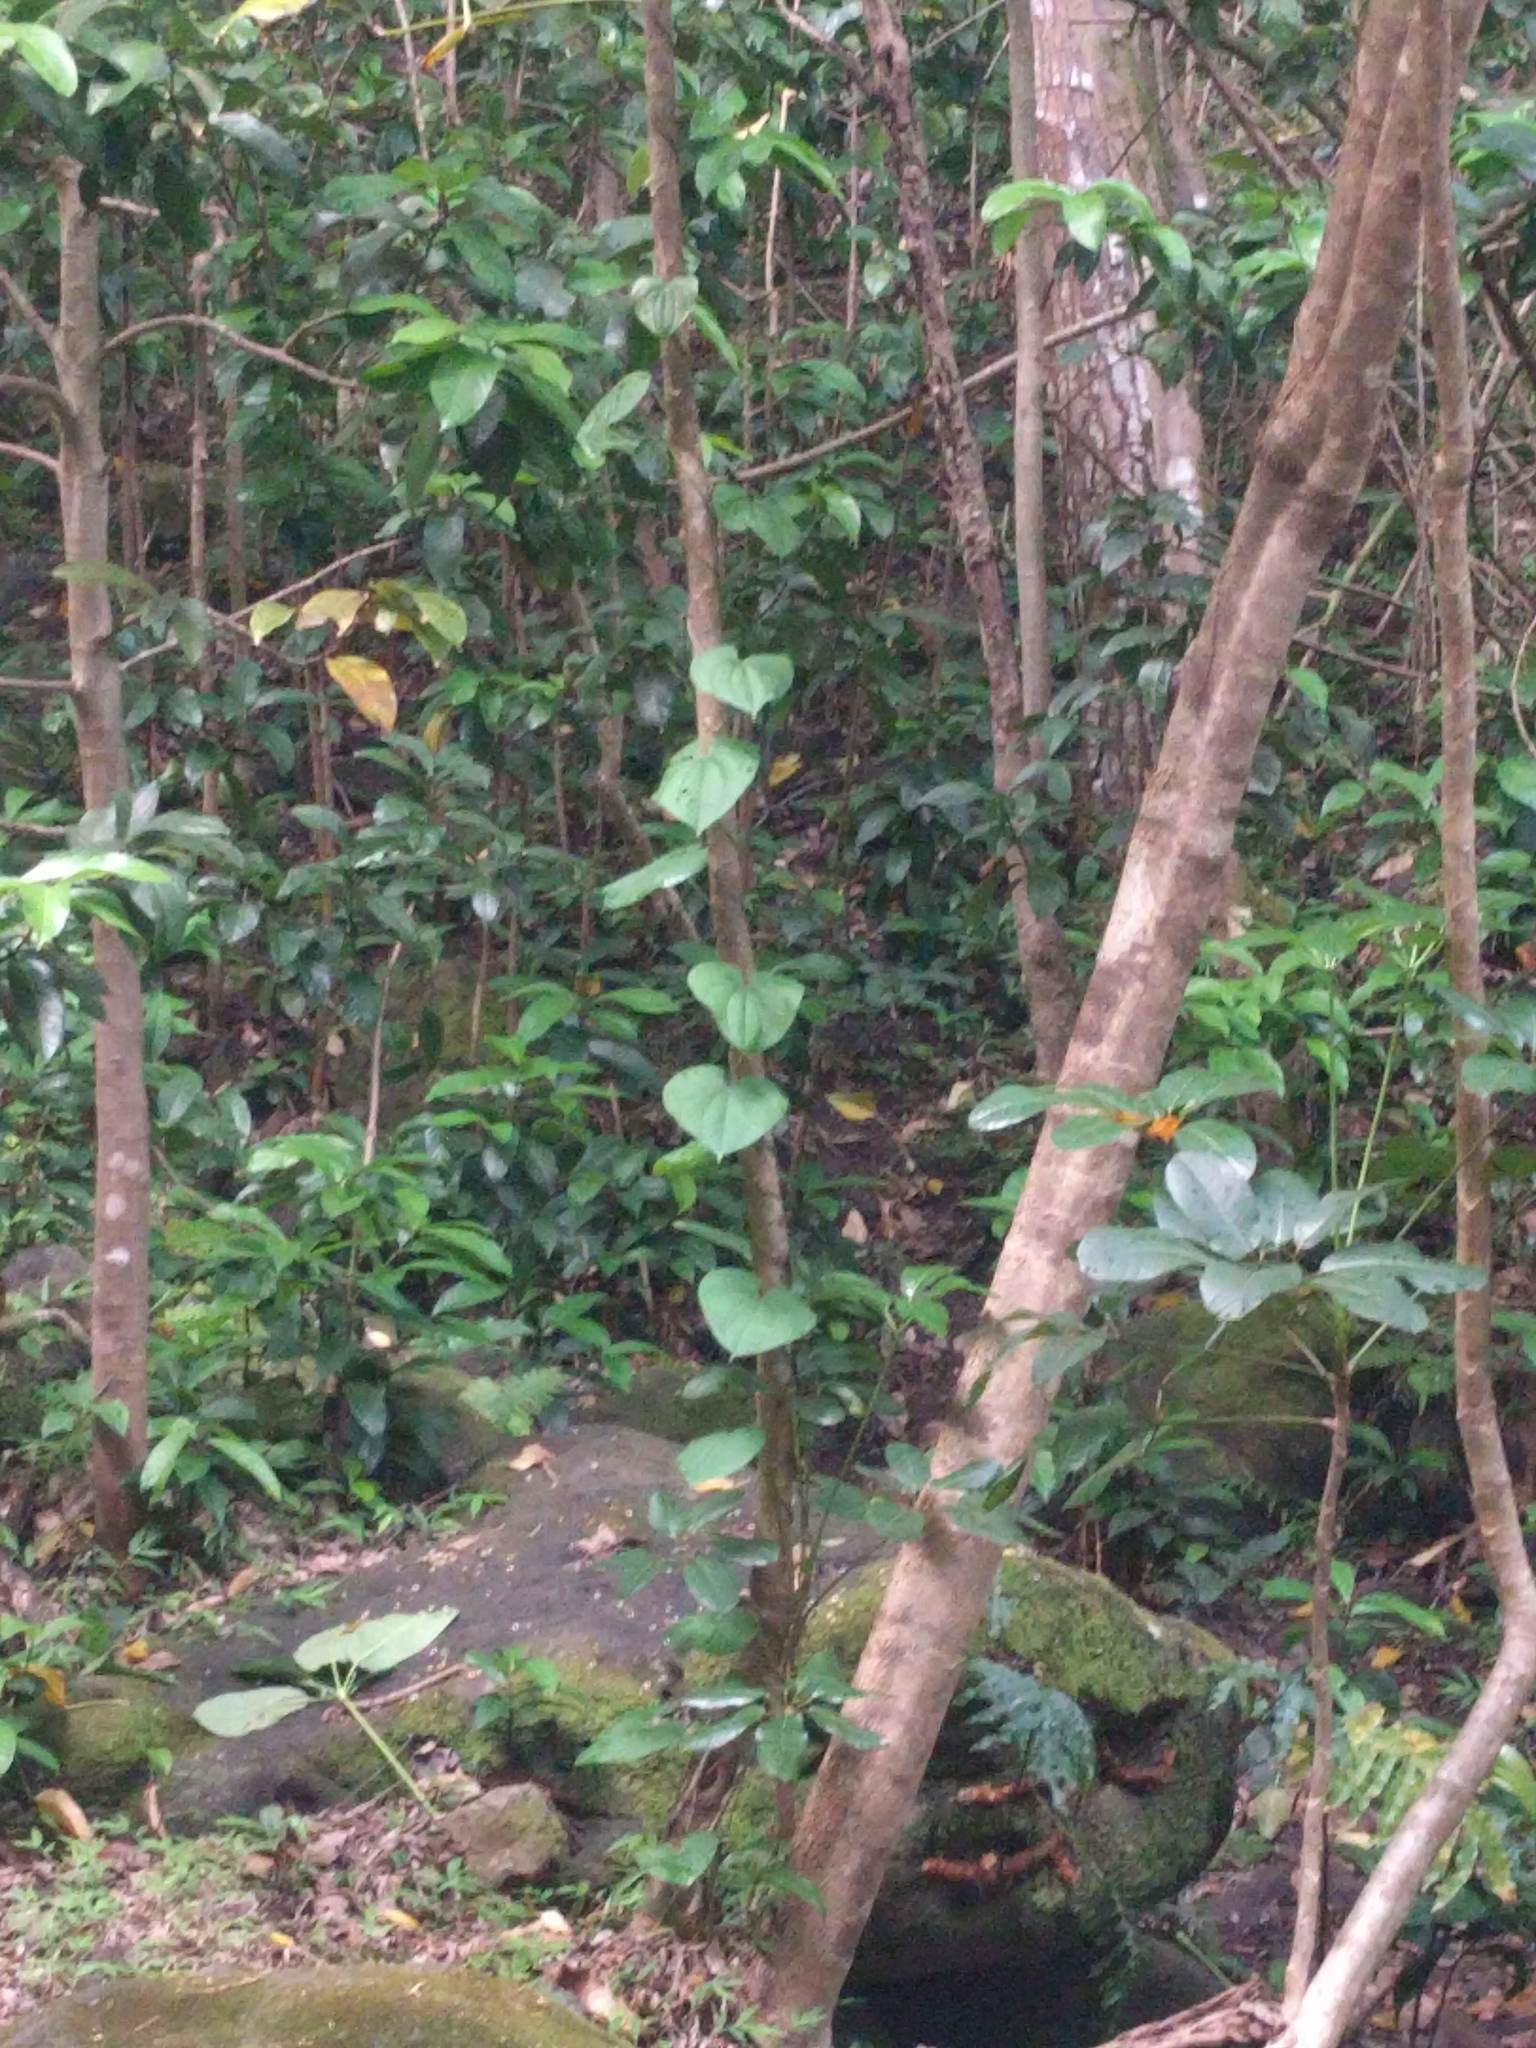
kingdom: Plantae
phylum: Tracheophyta
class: Liliopsida
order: Dioscoreales
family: Dioscoreaceae
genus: Dioscorea
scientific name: Dioscorea bulbifera
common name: Air yam
